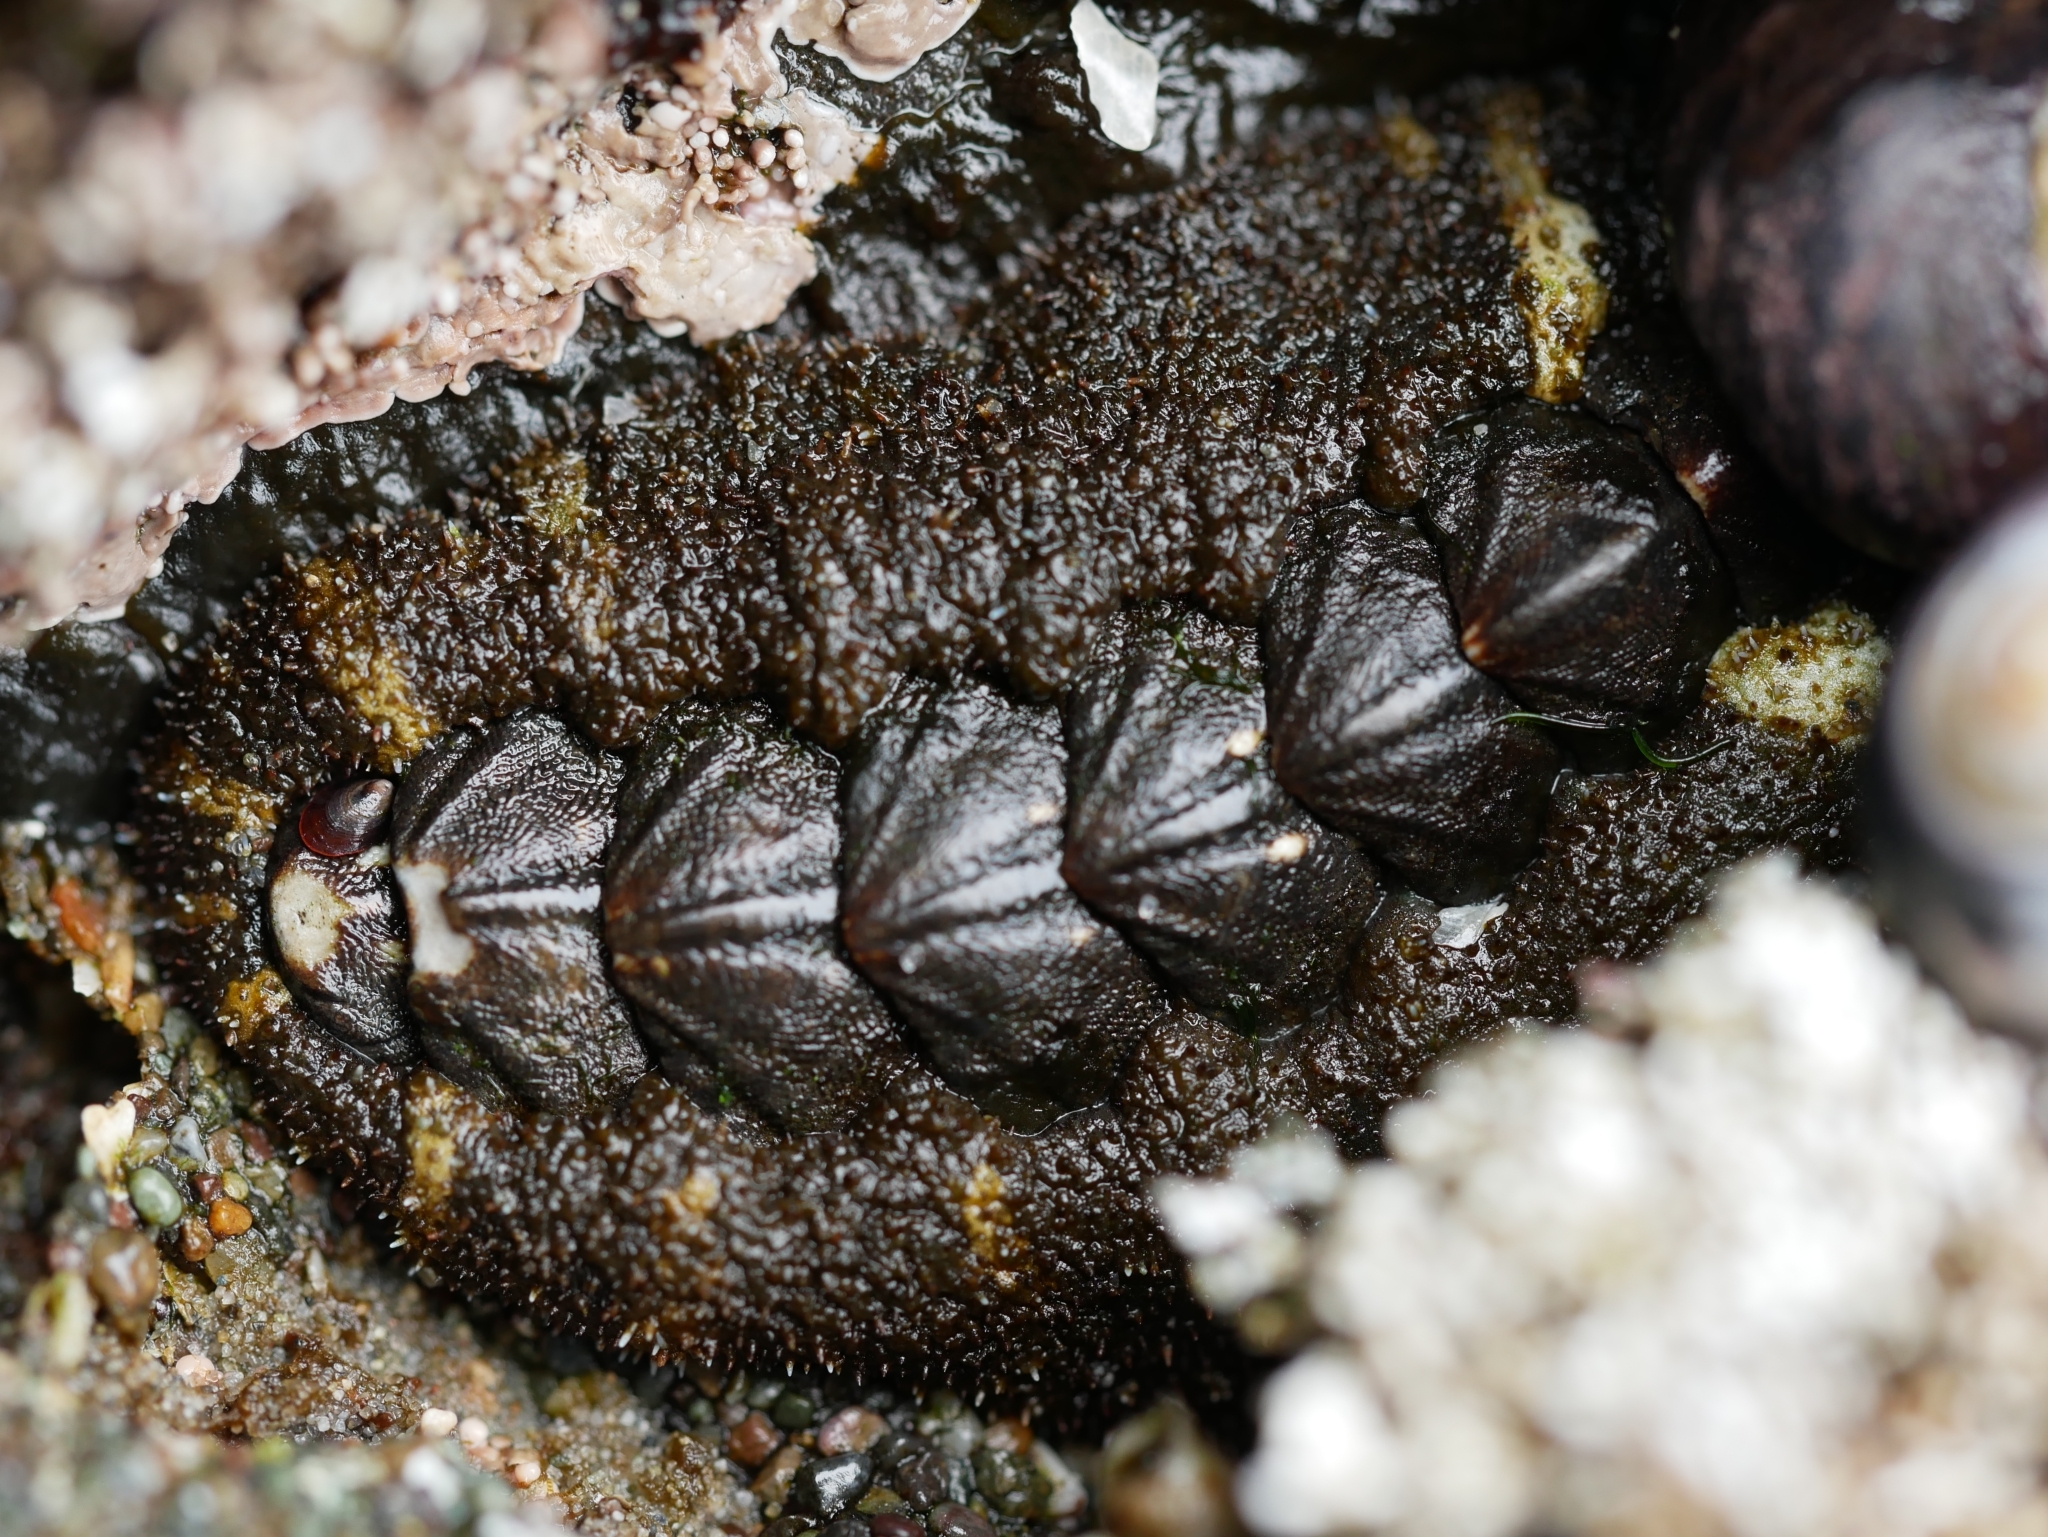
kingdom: Animalia
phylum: Mollusca
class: Polyplacophora
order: Chitonida
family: Tonicellidae
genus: Nuttallina
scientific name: Nuttallina californica
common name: California nuttall chiton
